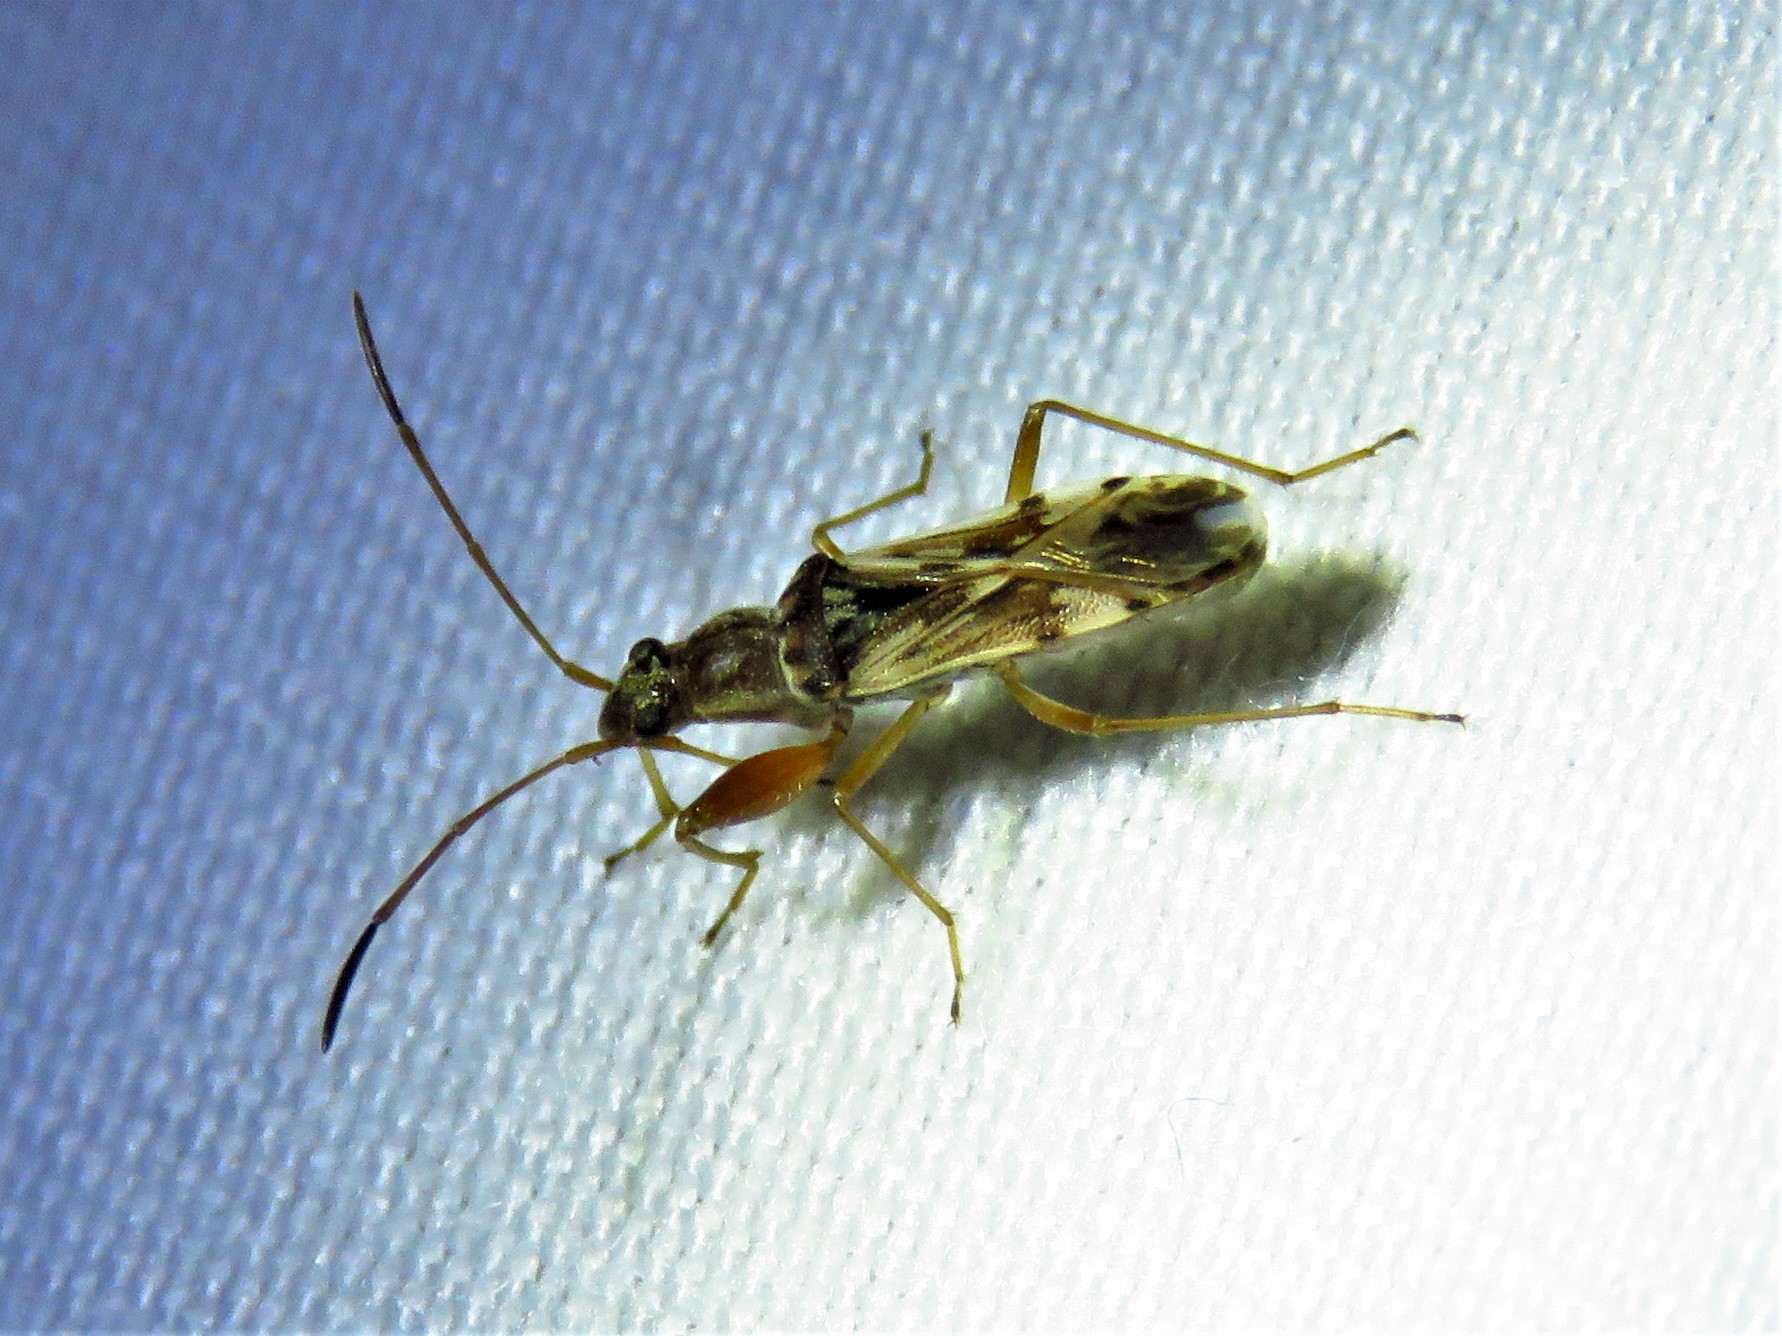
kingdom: Animalia
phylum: Arthropoda
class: Insecta
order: Hemiptera
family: Rhyparochromidae
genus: Neopamera
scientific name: Neopamera bilobata
